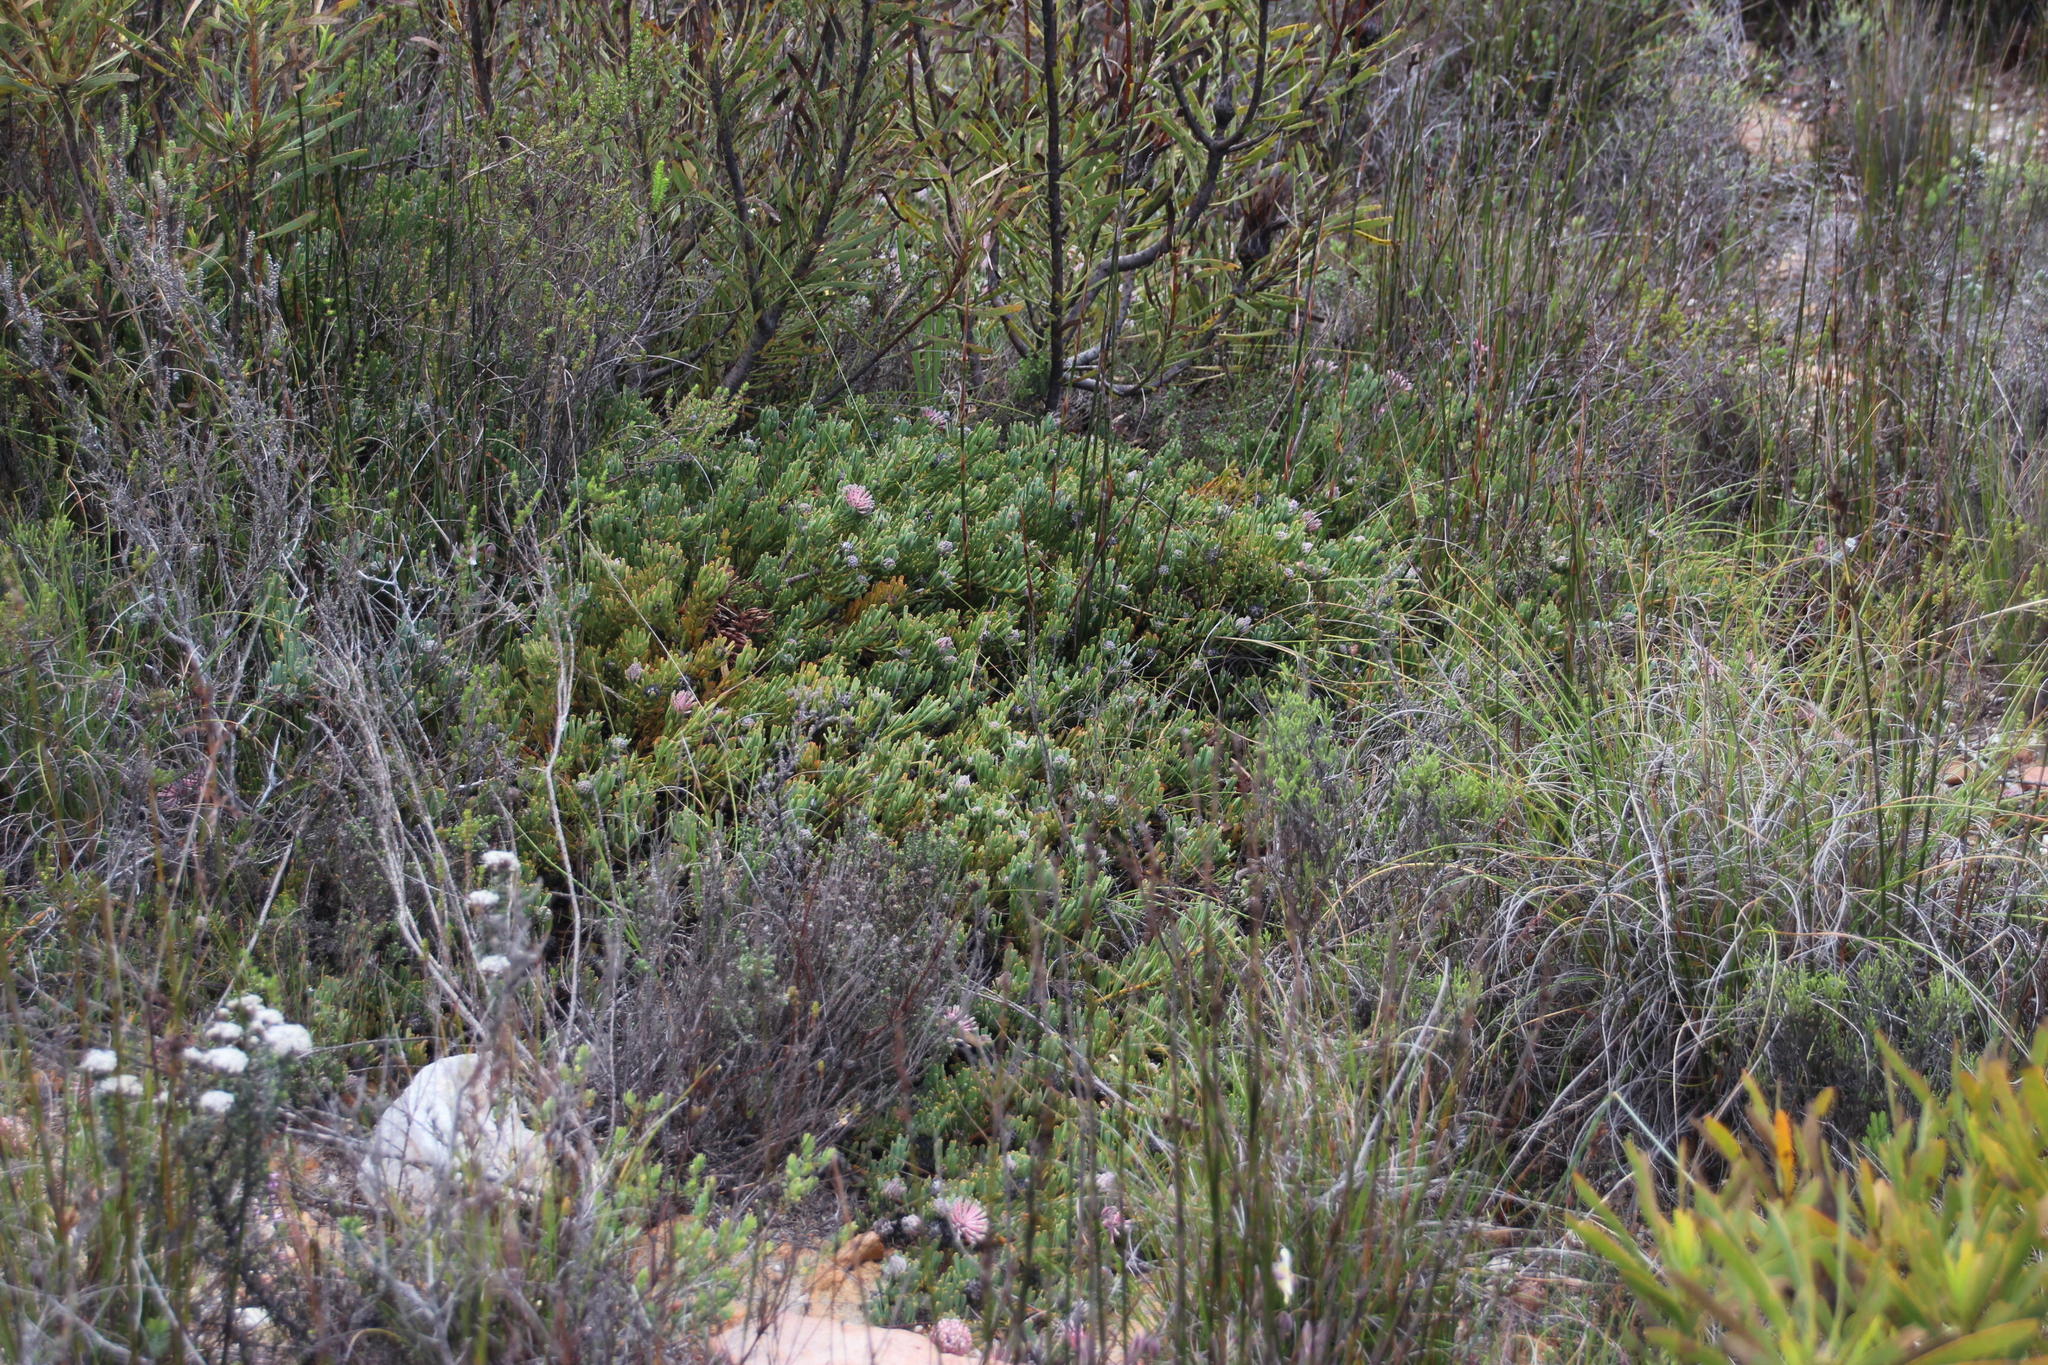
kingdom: Plantae
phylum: Tracheophyta
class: Magnoliopsida
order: Proteales
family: Proteaceae
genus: Vexatorella
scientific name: Vexatorella obtusata
